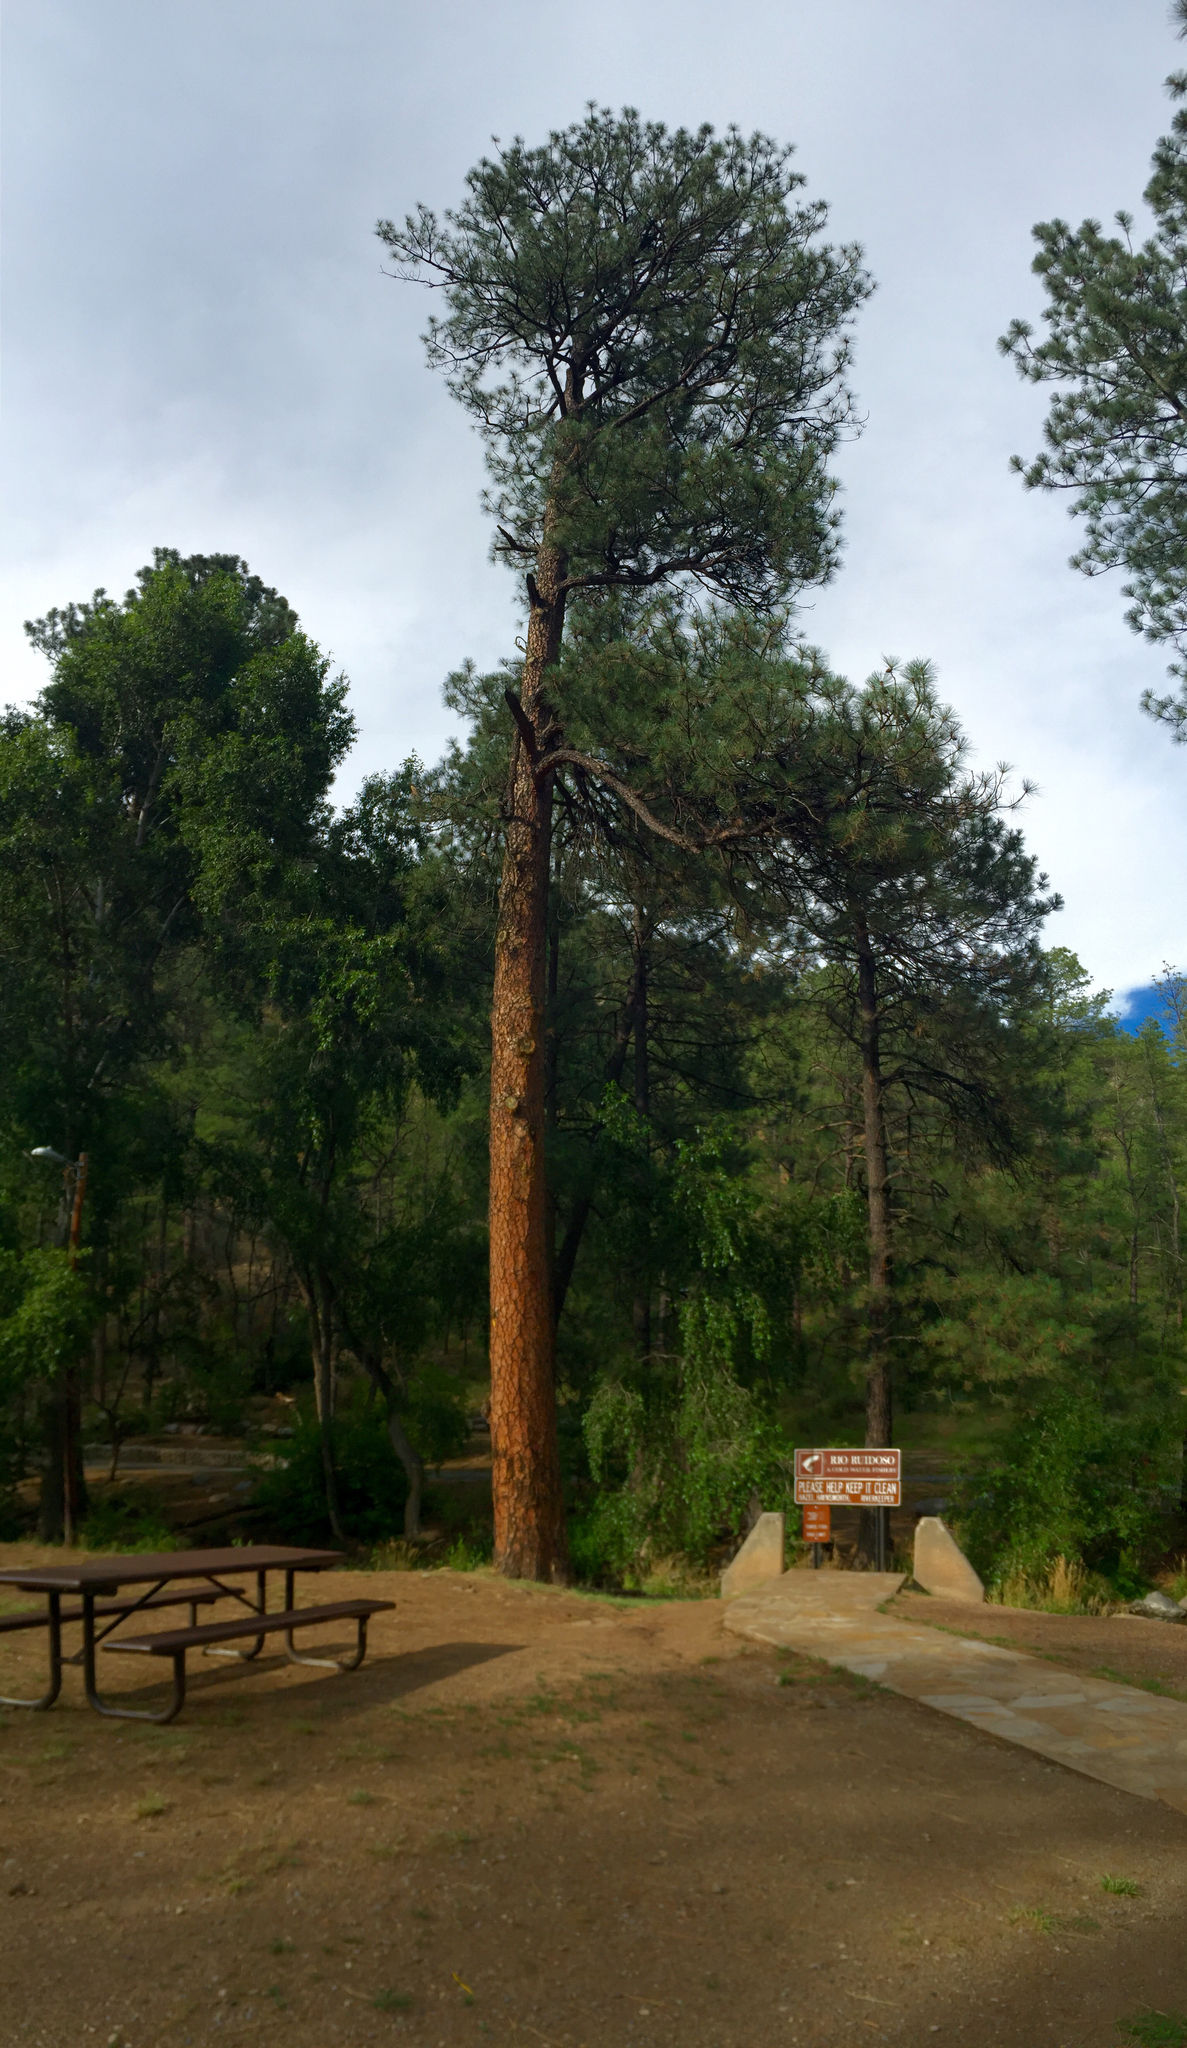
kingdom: Plantae
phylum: Tracheophyta
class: Pinopsida
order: Pinales
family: Pinaceae
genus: Pinus
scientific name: Pinus ponderosa
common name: Western yellow-pine
